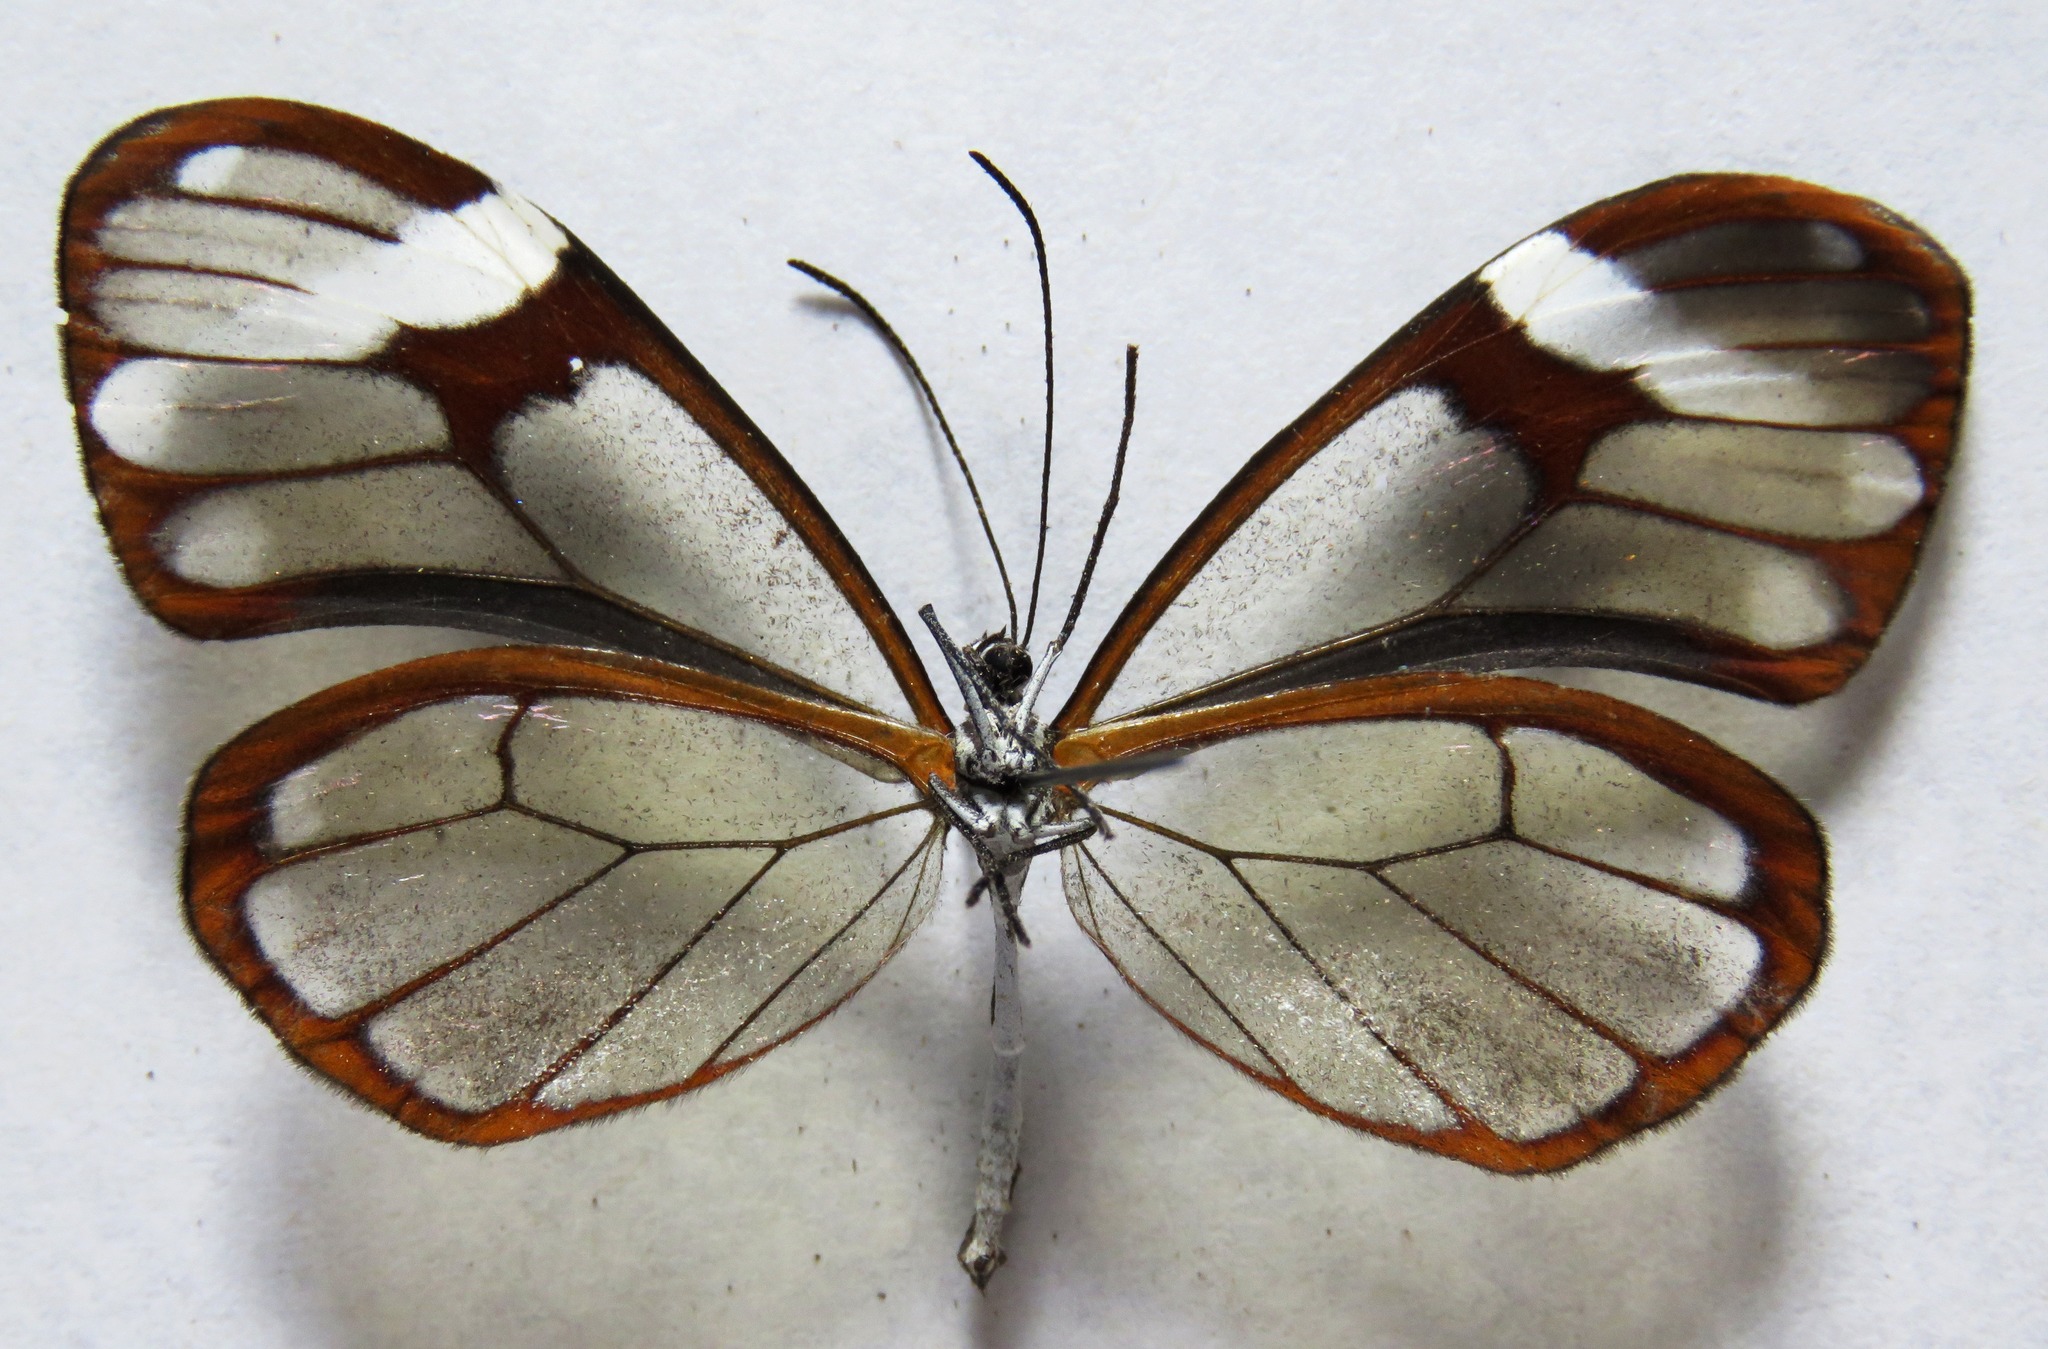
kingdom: Animalia
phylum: Arthropoda
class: Insecta
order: Lepidoptera
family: Nymphalidae
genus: Godyris
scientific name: Godyris nero
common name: Nero clearwing
